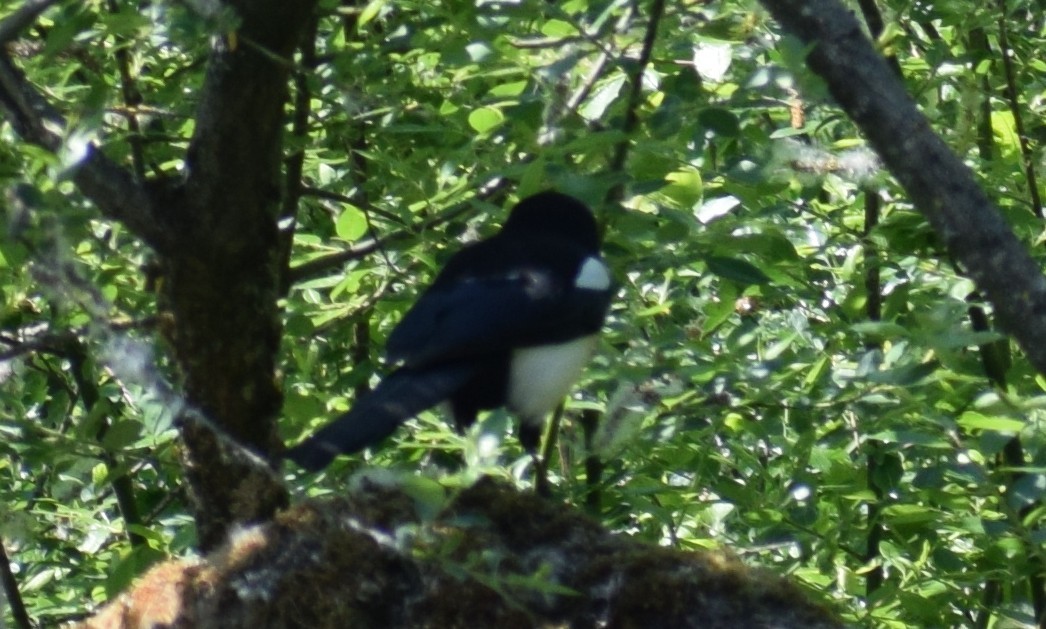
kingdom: Animalia
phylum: Chordata
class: Aves
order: Passeriformes
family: Corvidae
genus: Pica
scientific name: Pica pica
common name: Eurasian magpie
